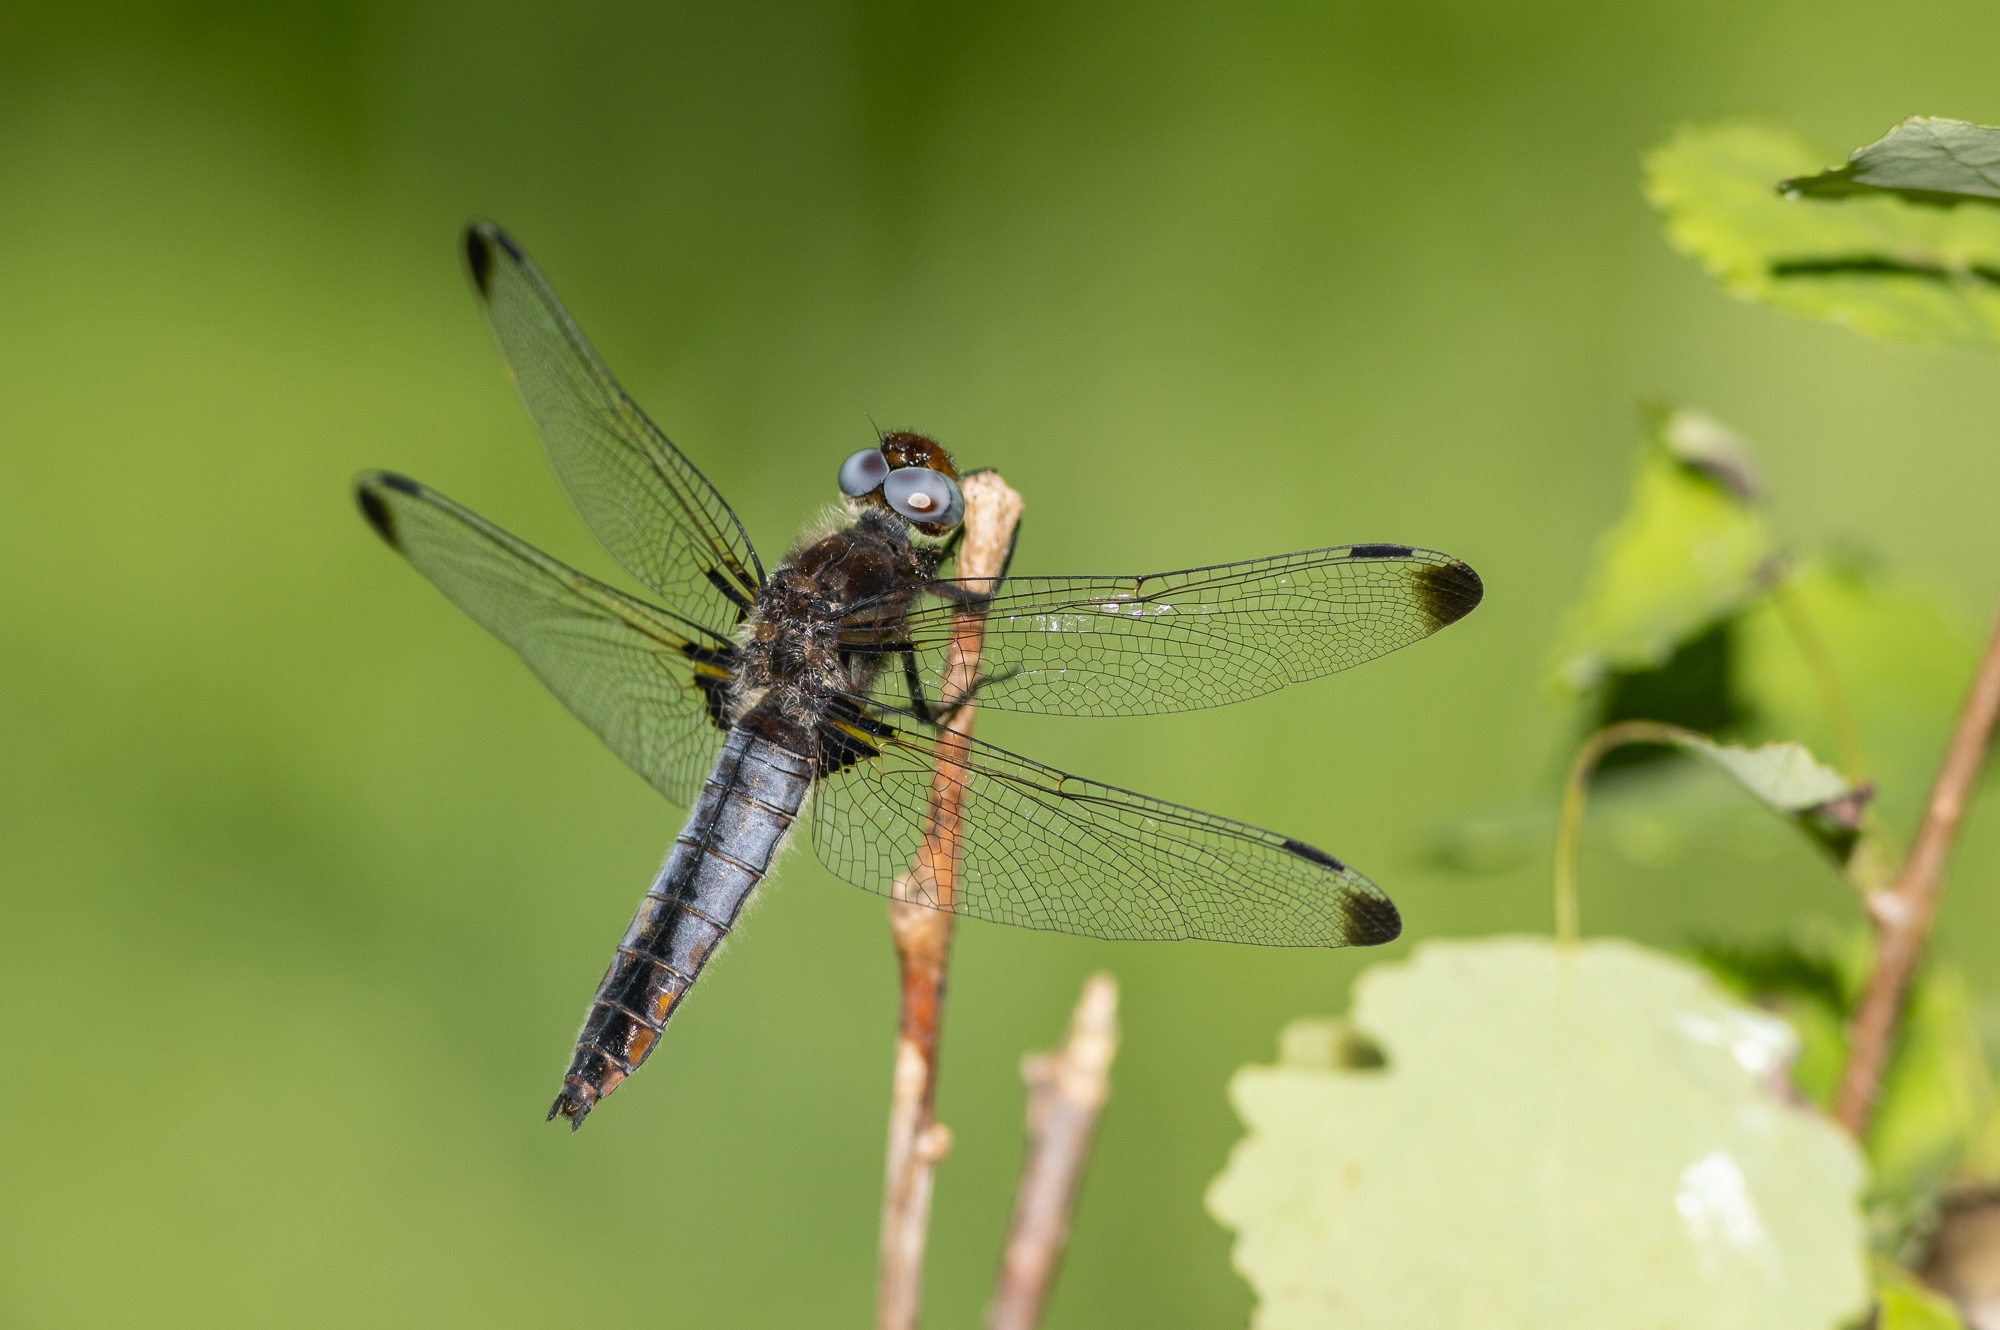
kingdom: Animalia
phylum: Arthropoda
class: Insecta
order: Odonata
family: Libellulidae
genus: Libellula
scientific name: Libellula fulva
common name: Blue chaser
